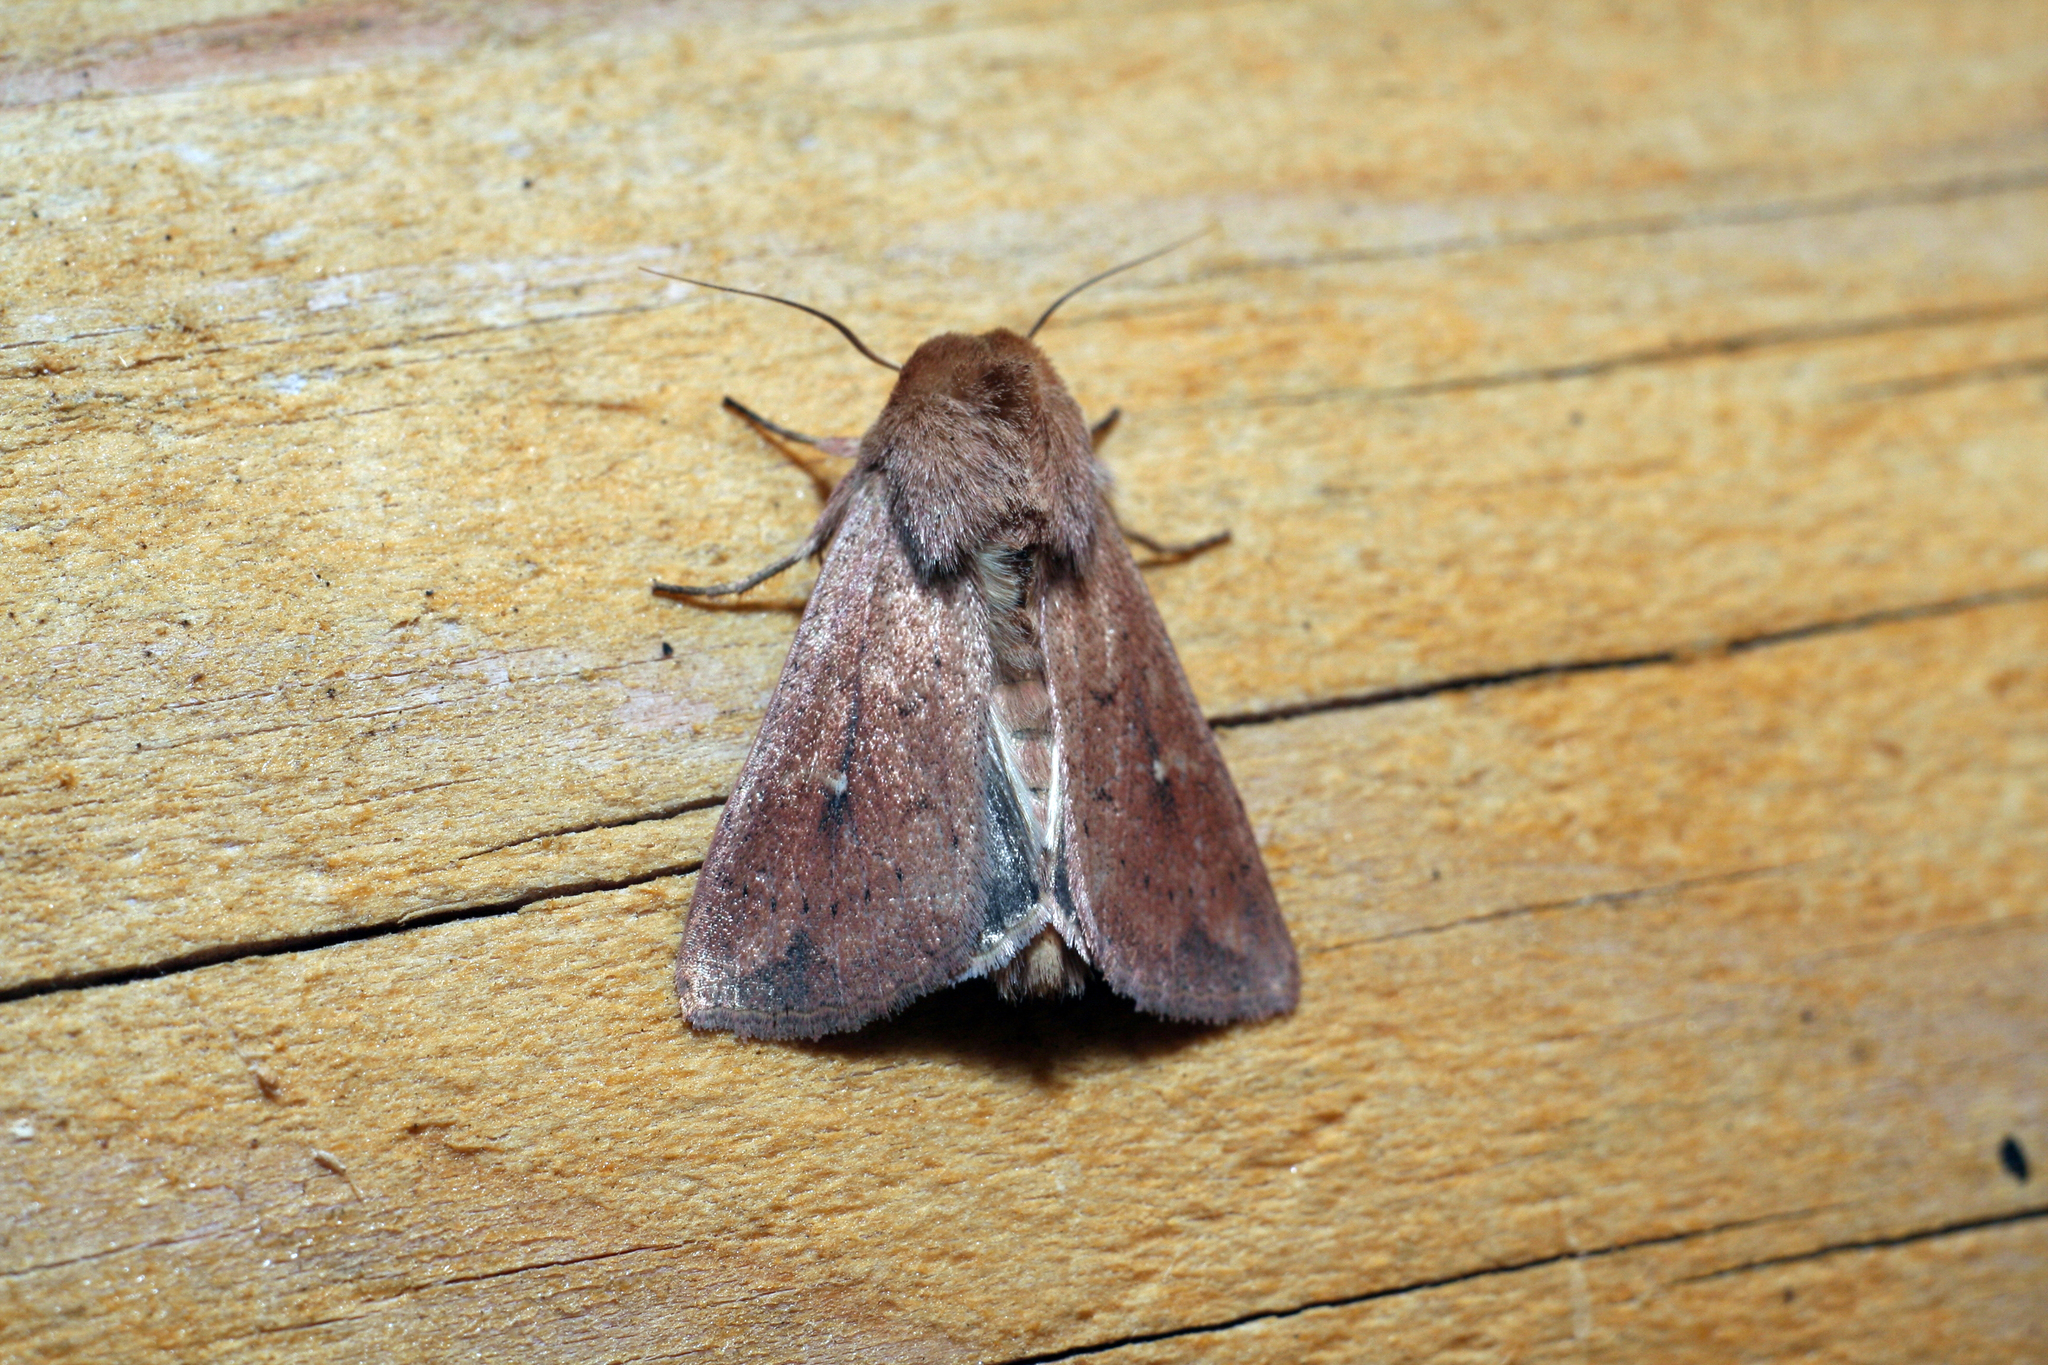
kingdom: Animalia
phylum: Arthropoda
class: Insecta
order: Lepidoptera
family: Noctuidae
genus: Mythimna
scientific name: Mythimna ferrago
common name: Clay
